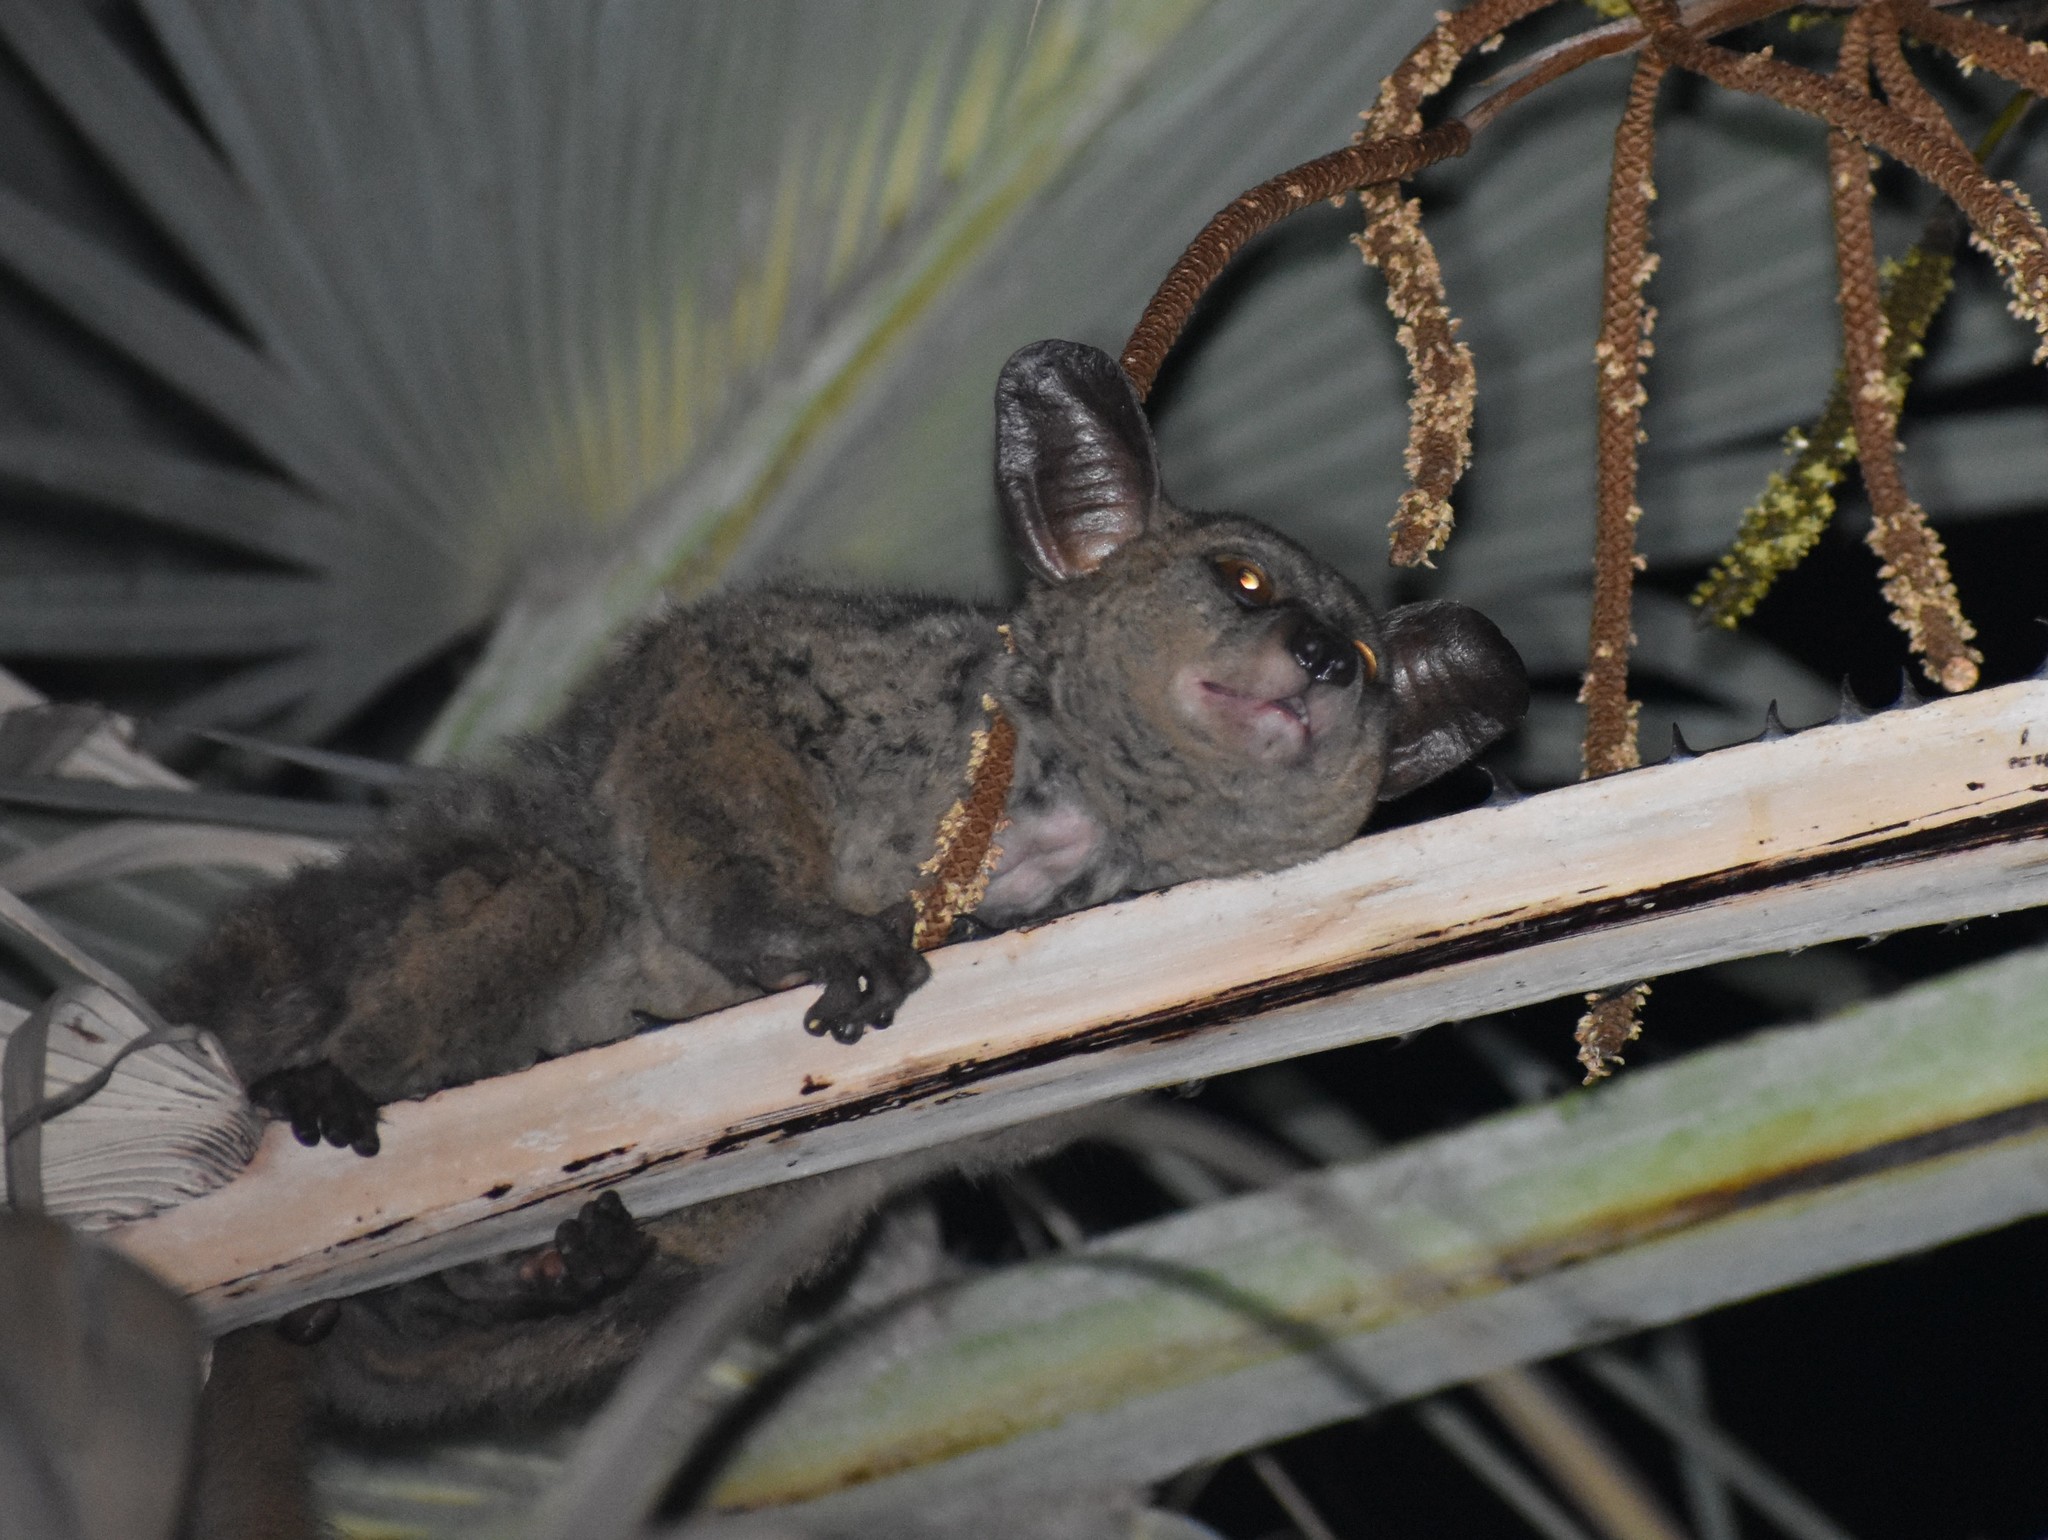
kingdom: Animalia
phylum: Chordata
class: Mammalia
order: Primates
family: Galagidae
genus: Otolemur
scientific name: Otolemur crassicaudatus
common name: Brown greater galago
